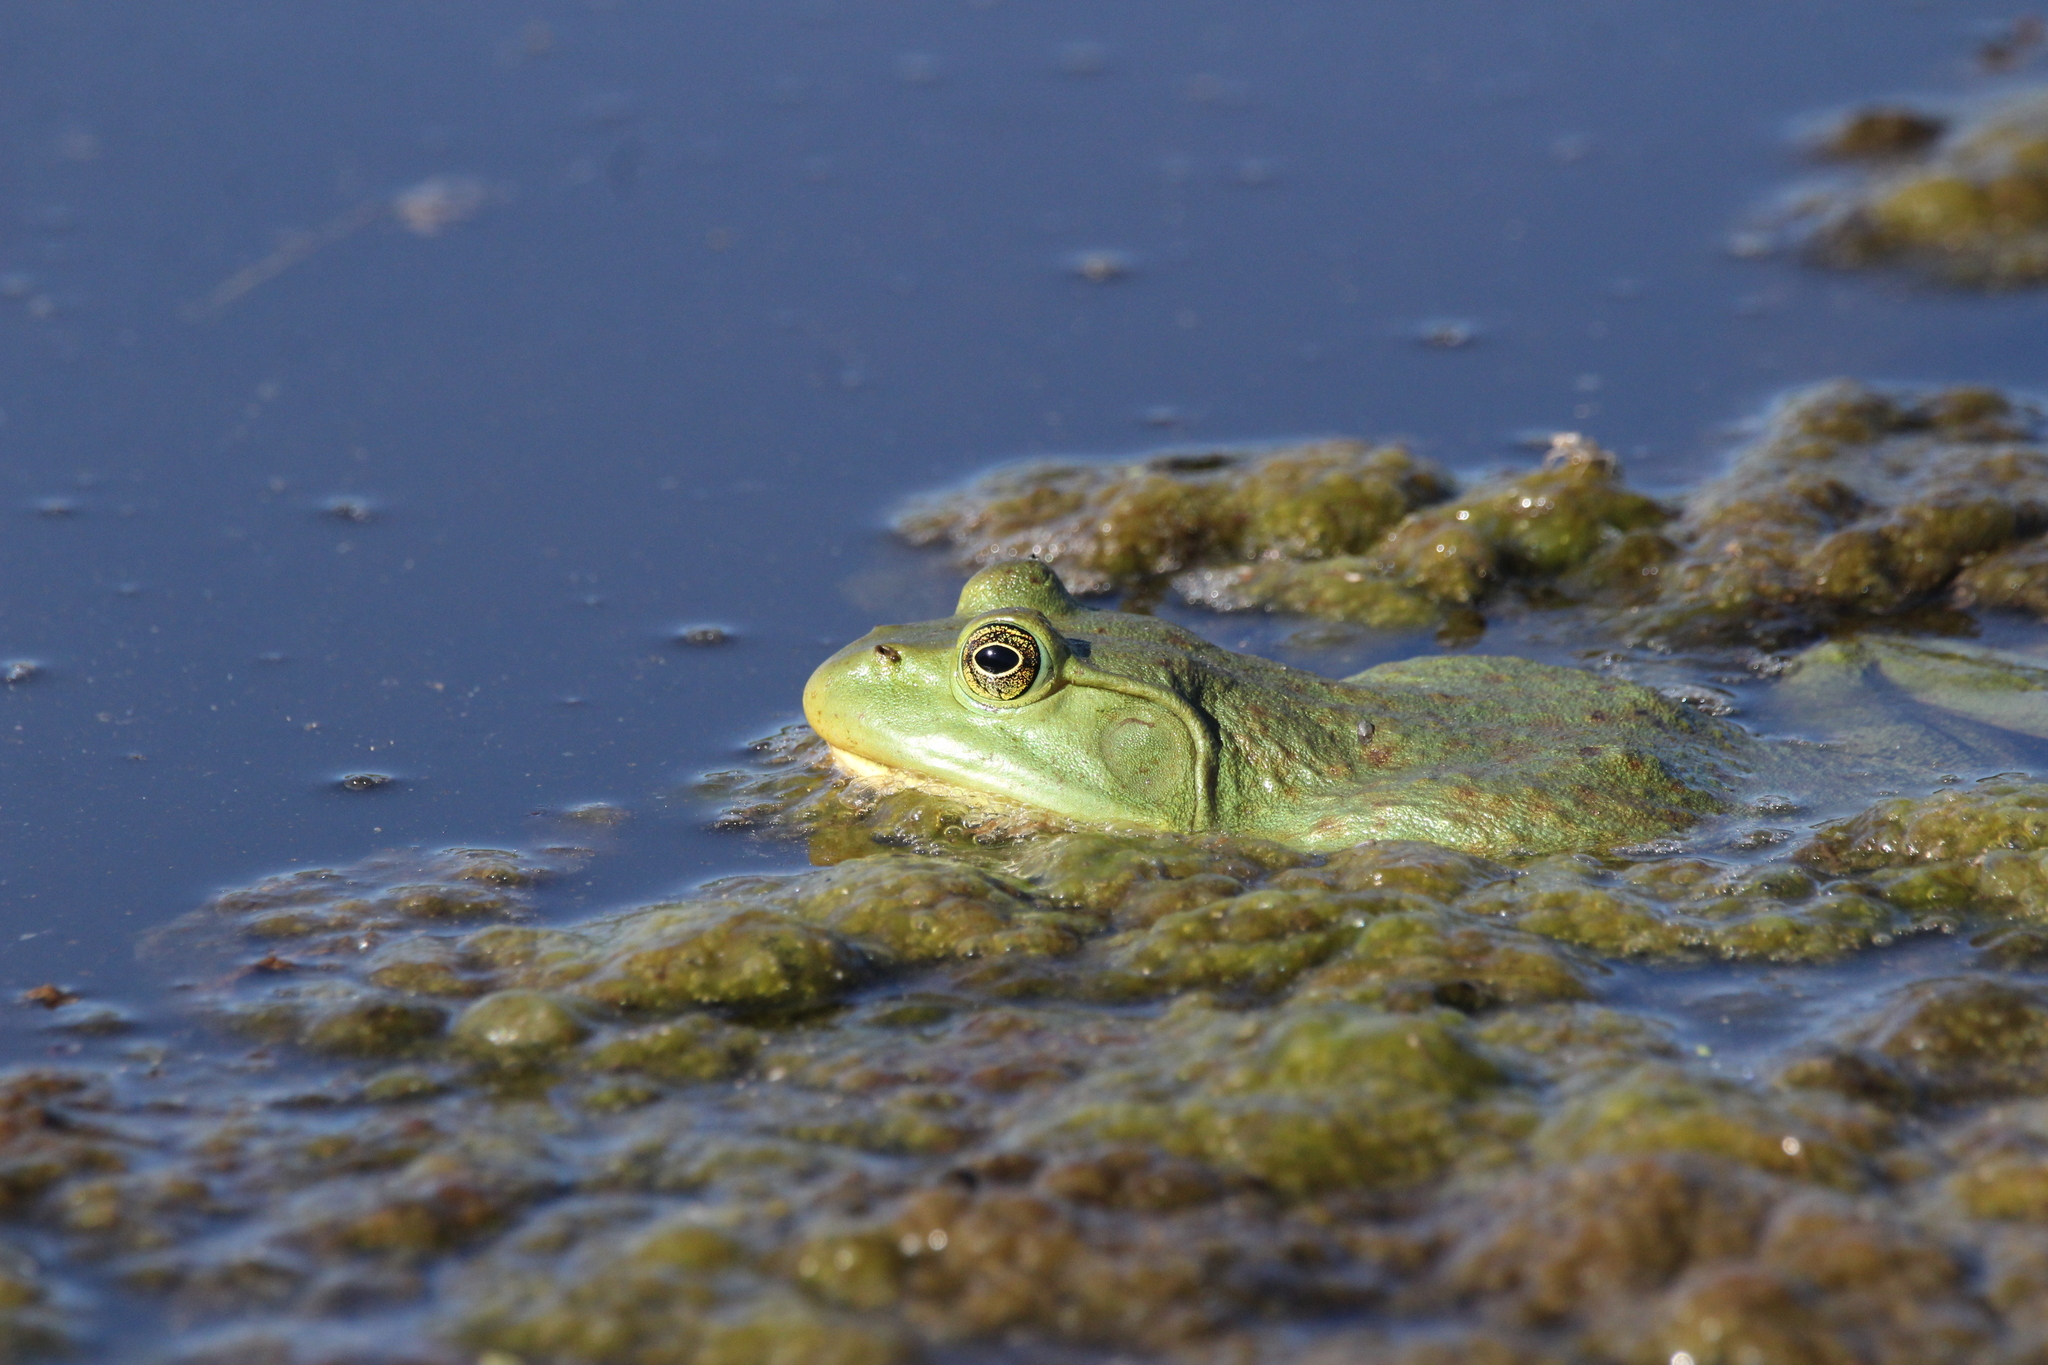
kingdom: Animalia
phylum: Chordata
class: Amphibia
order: Anura
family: Ranidae
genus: Lithobates
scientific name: Lithobates catesbeianus
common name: American bullfrog
